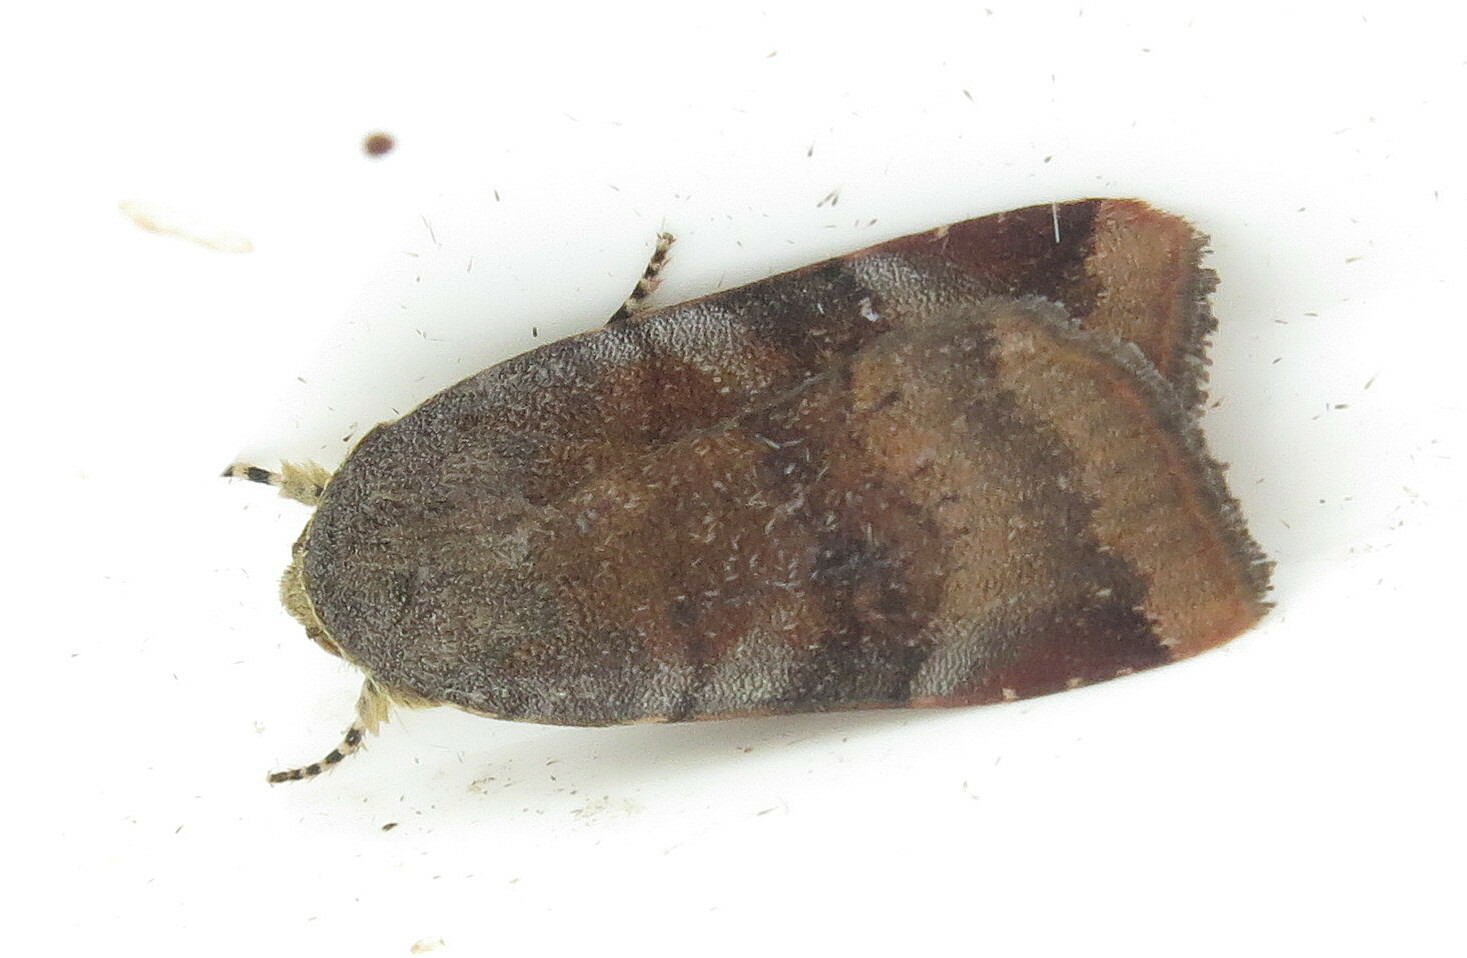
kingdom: Animalia
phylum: Arthropoda
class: Insecta
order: Lepidoptera
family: Noctuidae
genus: Noctua
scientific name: Noctua janthe
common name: Lesser broad-bordered yellow underwing
